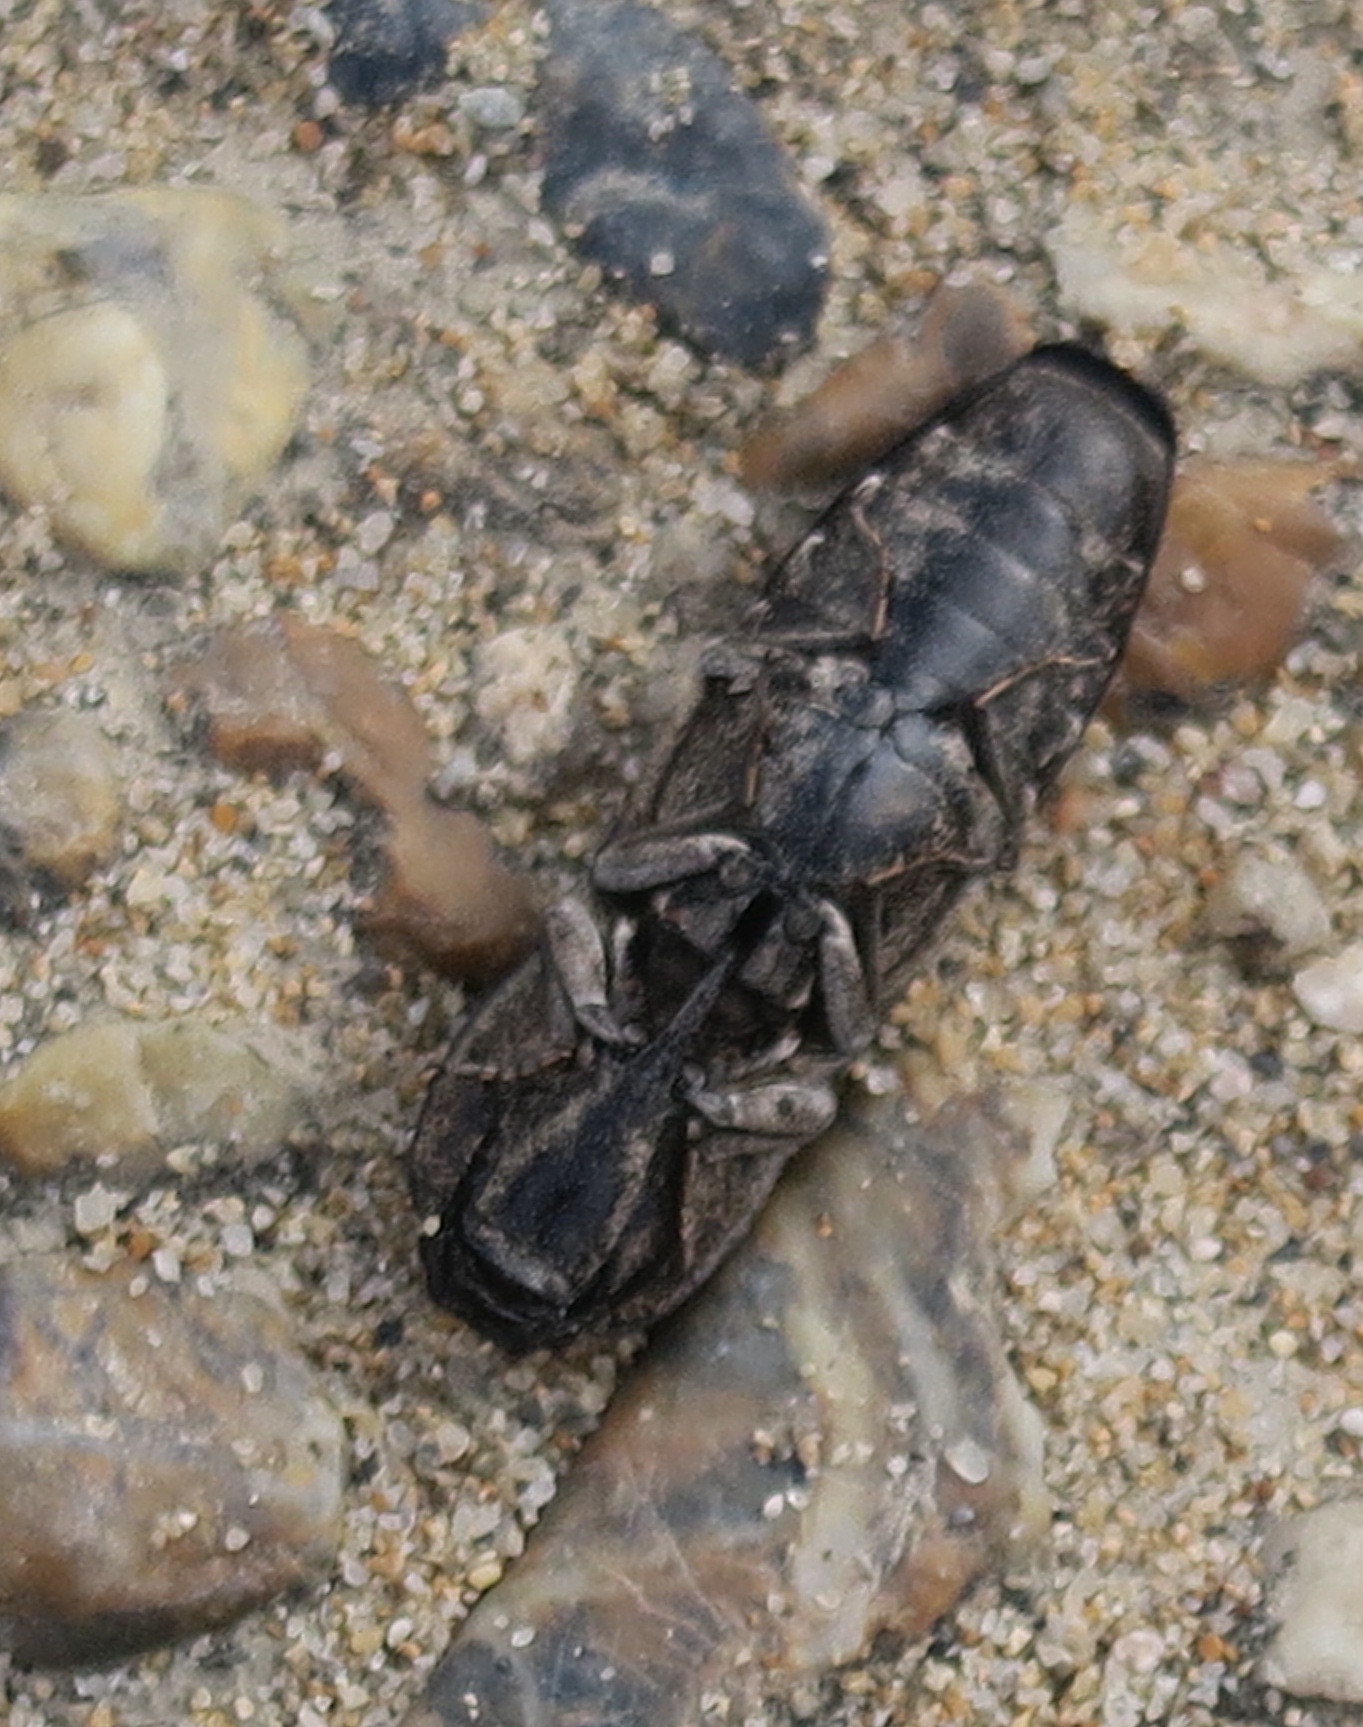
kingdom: Animalia
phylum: Arthropoda
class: Insecta
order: Coleoptera
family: Elateridae
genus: Cryptalaus
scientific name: Cryptalaus berus
